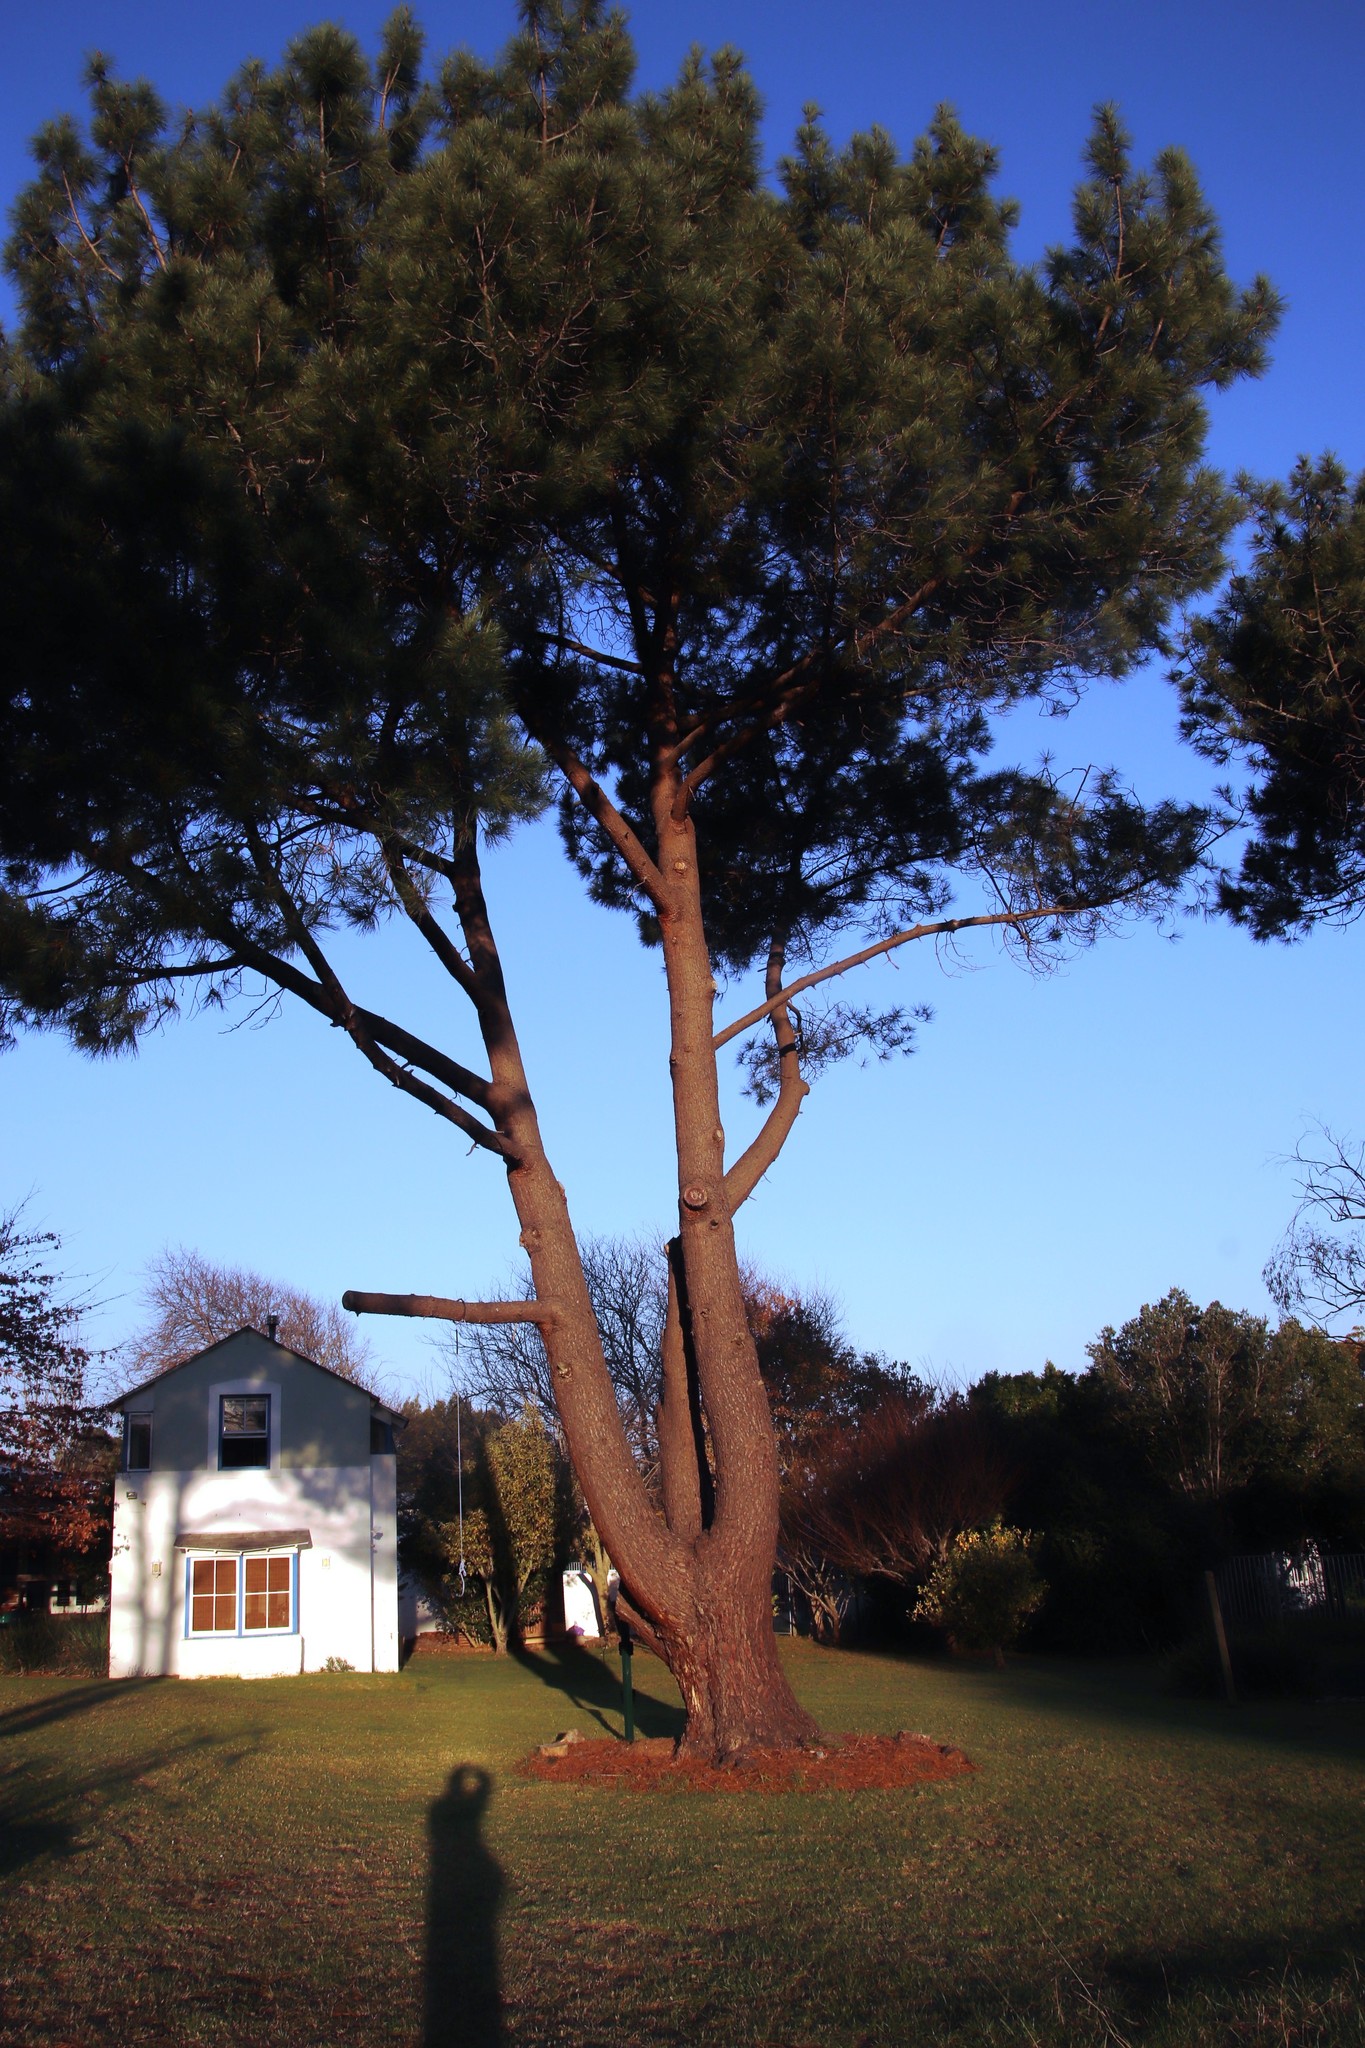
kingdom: Plantae
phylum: Tracheophyta
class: Pinopsida
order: Pinales
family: Pinaceae
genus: Pinus
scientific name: Pinus pinaster
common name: Maritime pine
